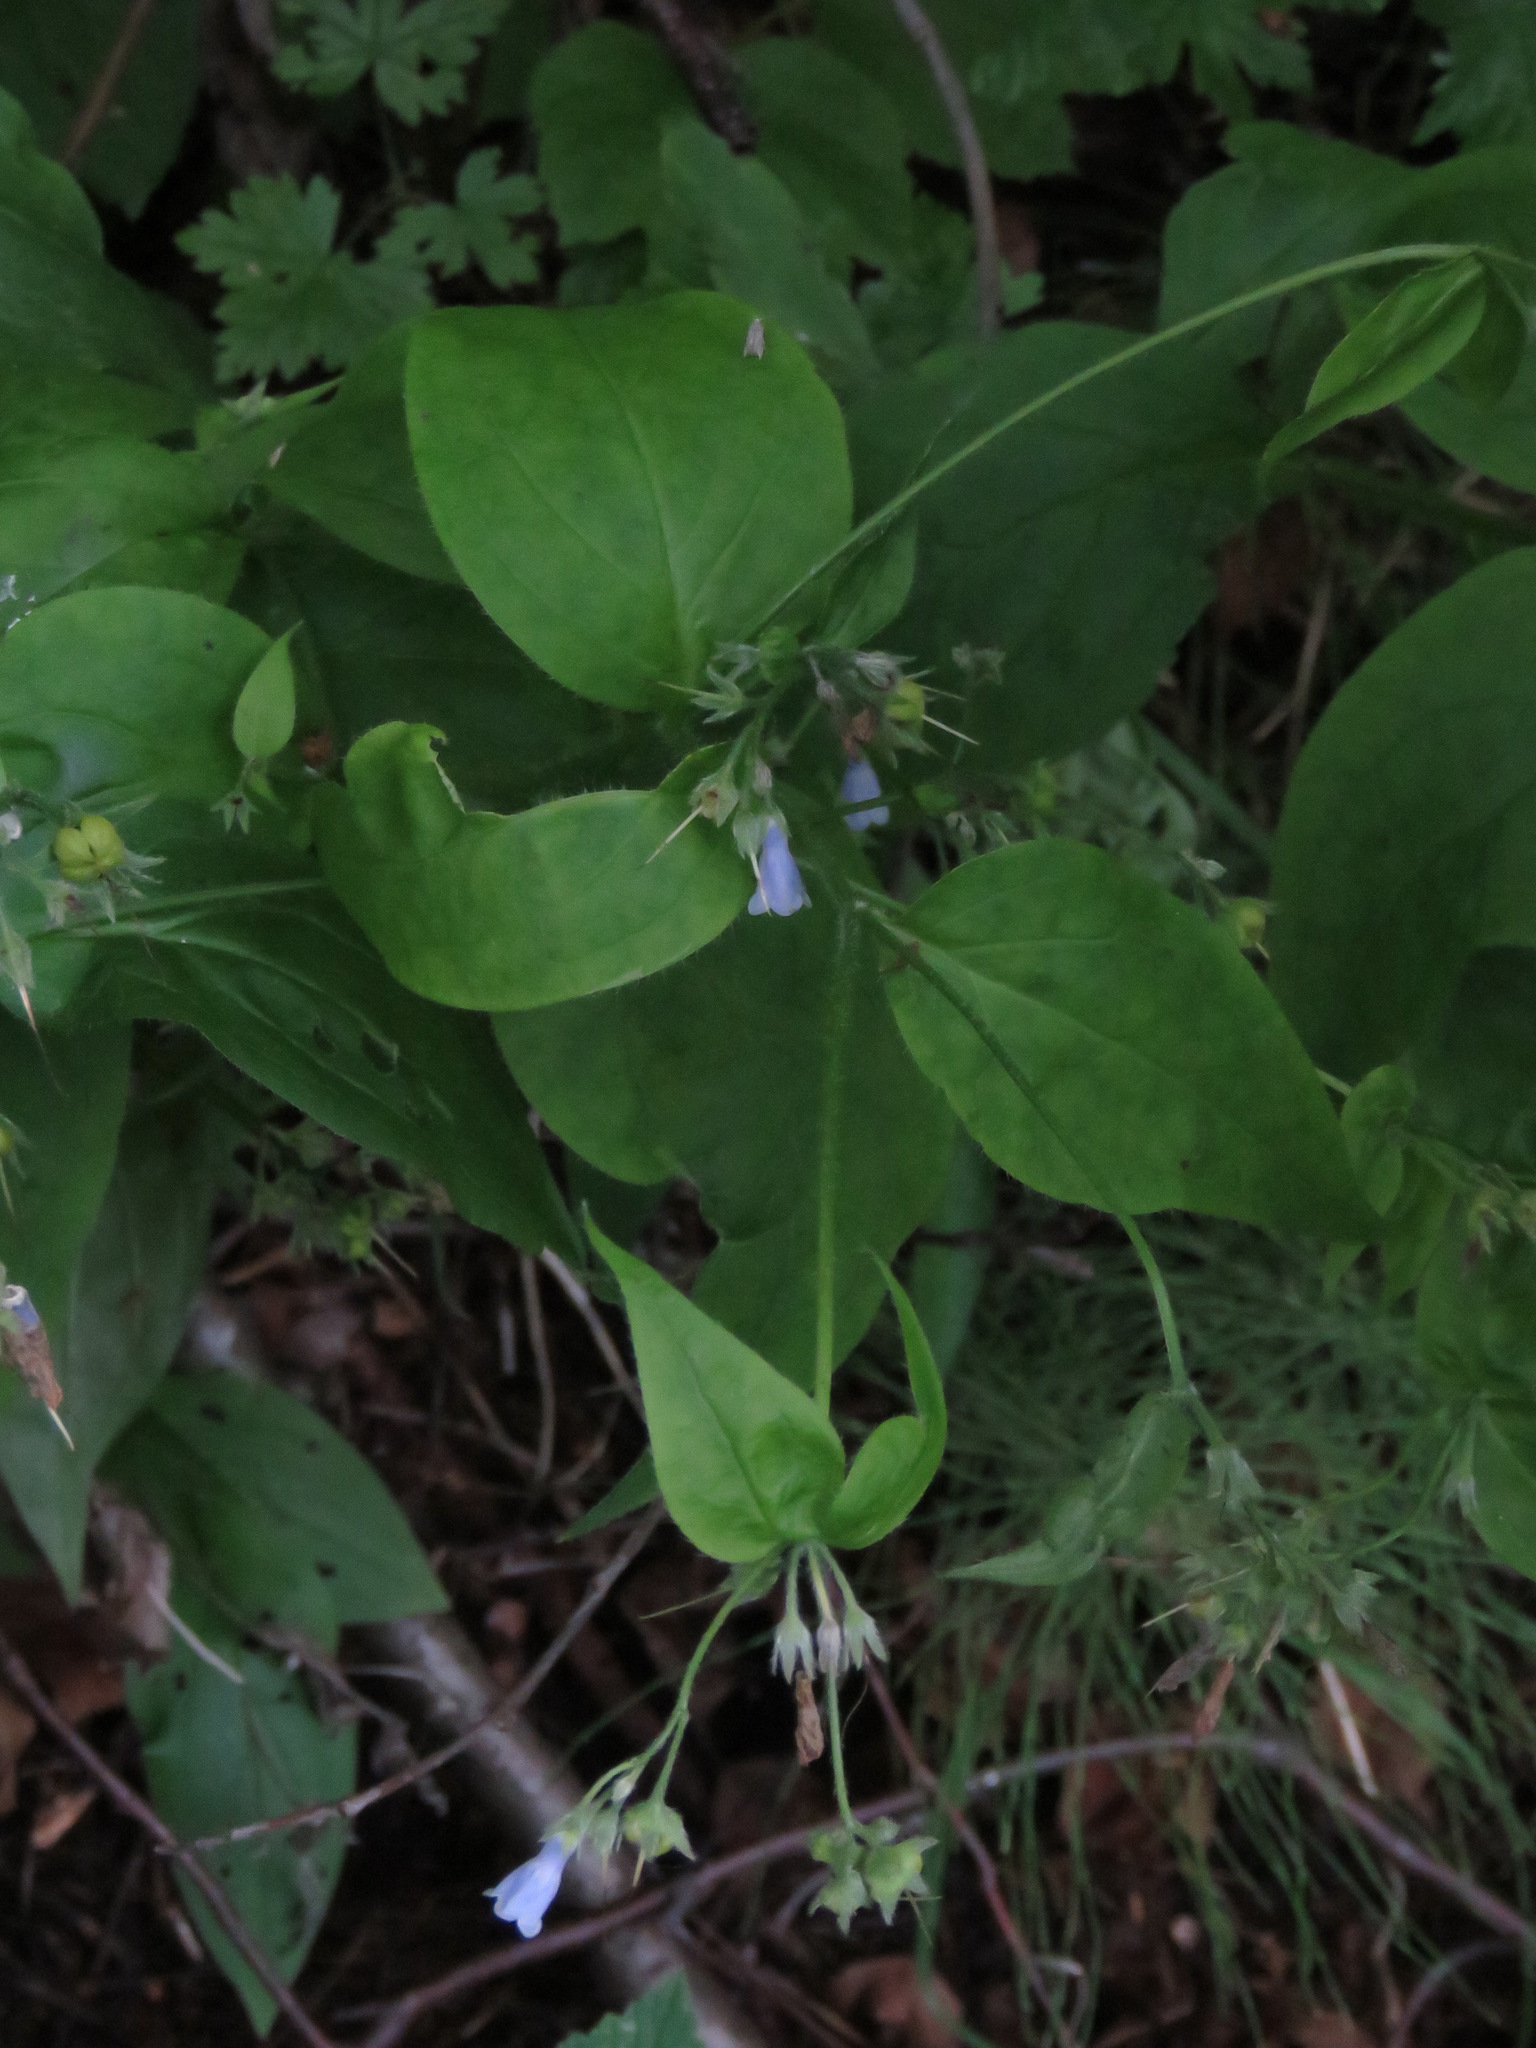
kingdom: Plantae
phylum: Tracheophyta
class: Magnoliopsida
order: Boraginales
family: Boraginaceae
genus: Mertensia
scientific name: Mertensia paniculata
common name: Panicled bluebells
